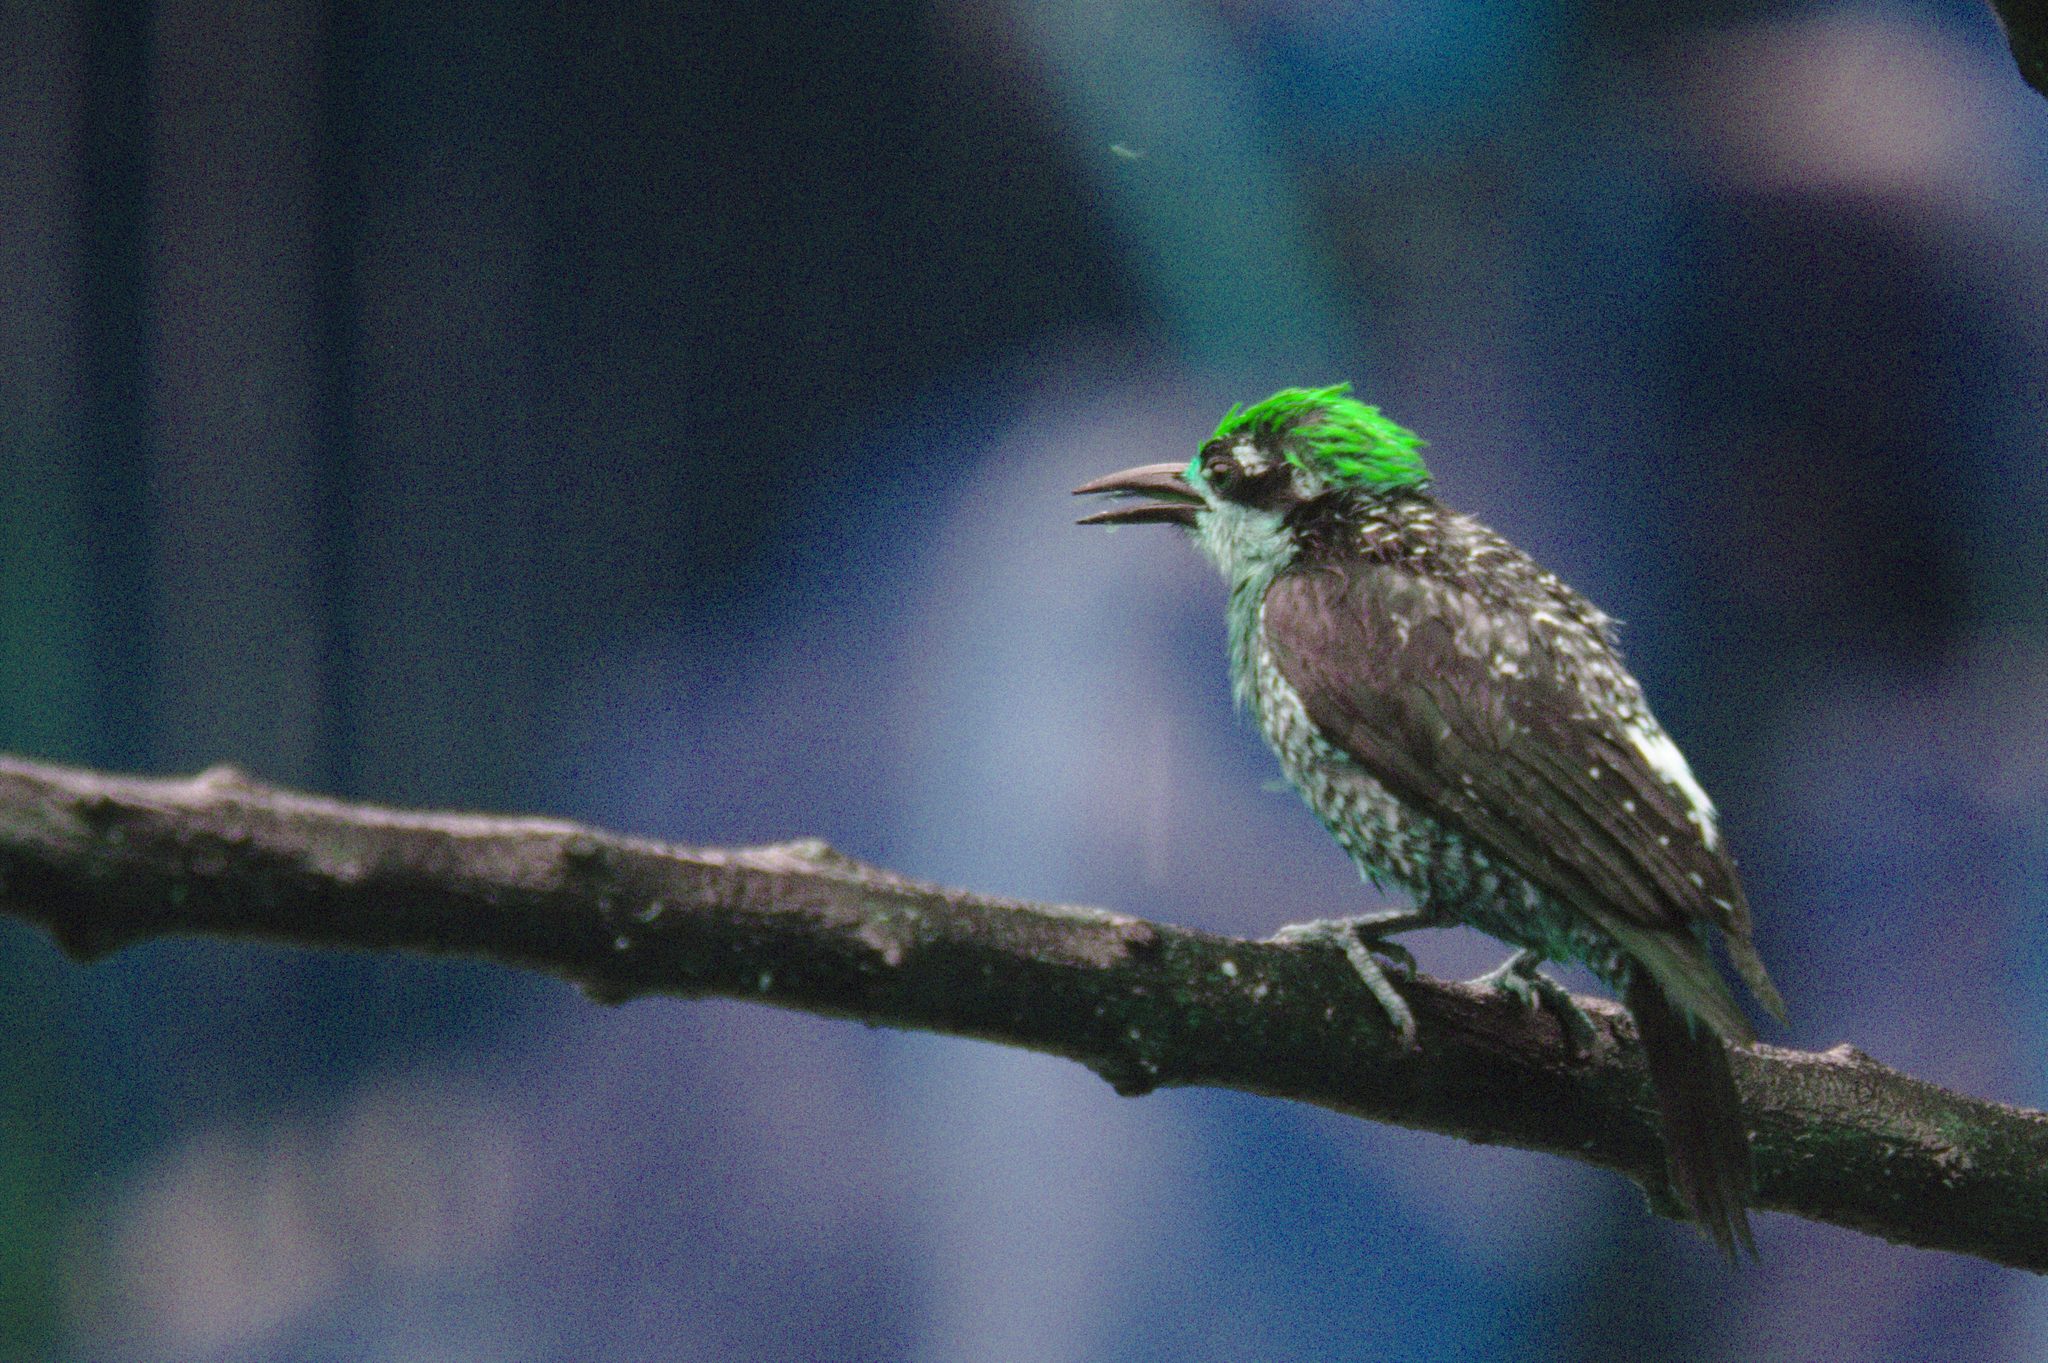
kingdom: Animalia
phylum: Chordata
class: Aves
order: Piciformes
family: Picidae
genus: Melanerpes
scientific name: Melanerpes pucherani
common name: Black-cheeked woodpecker
